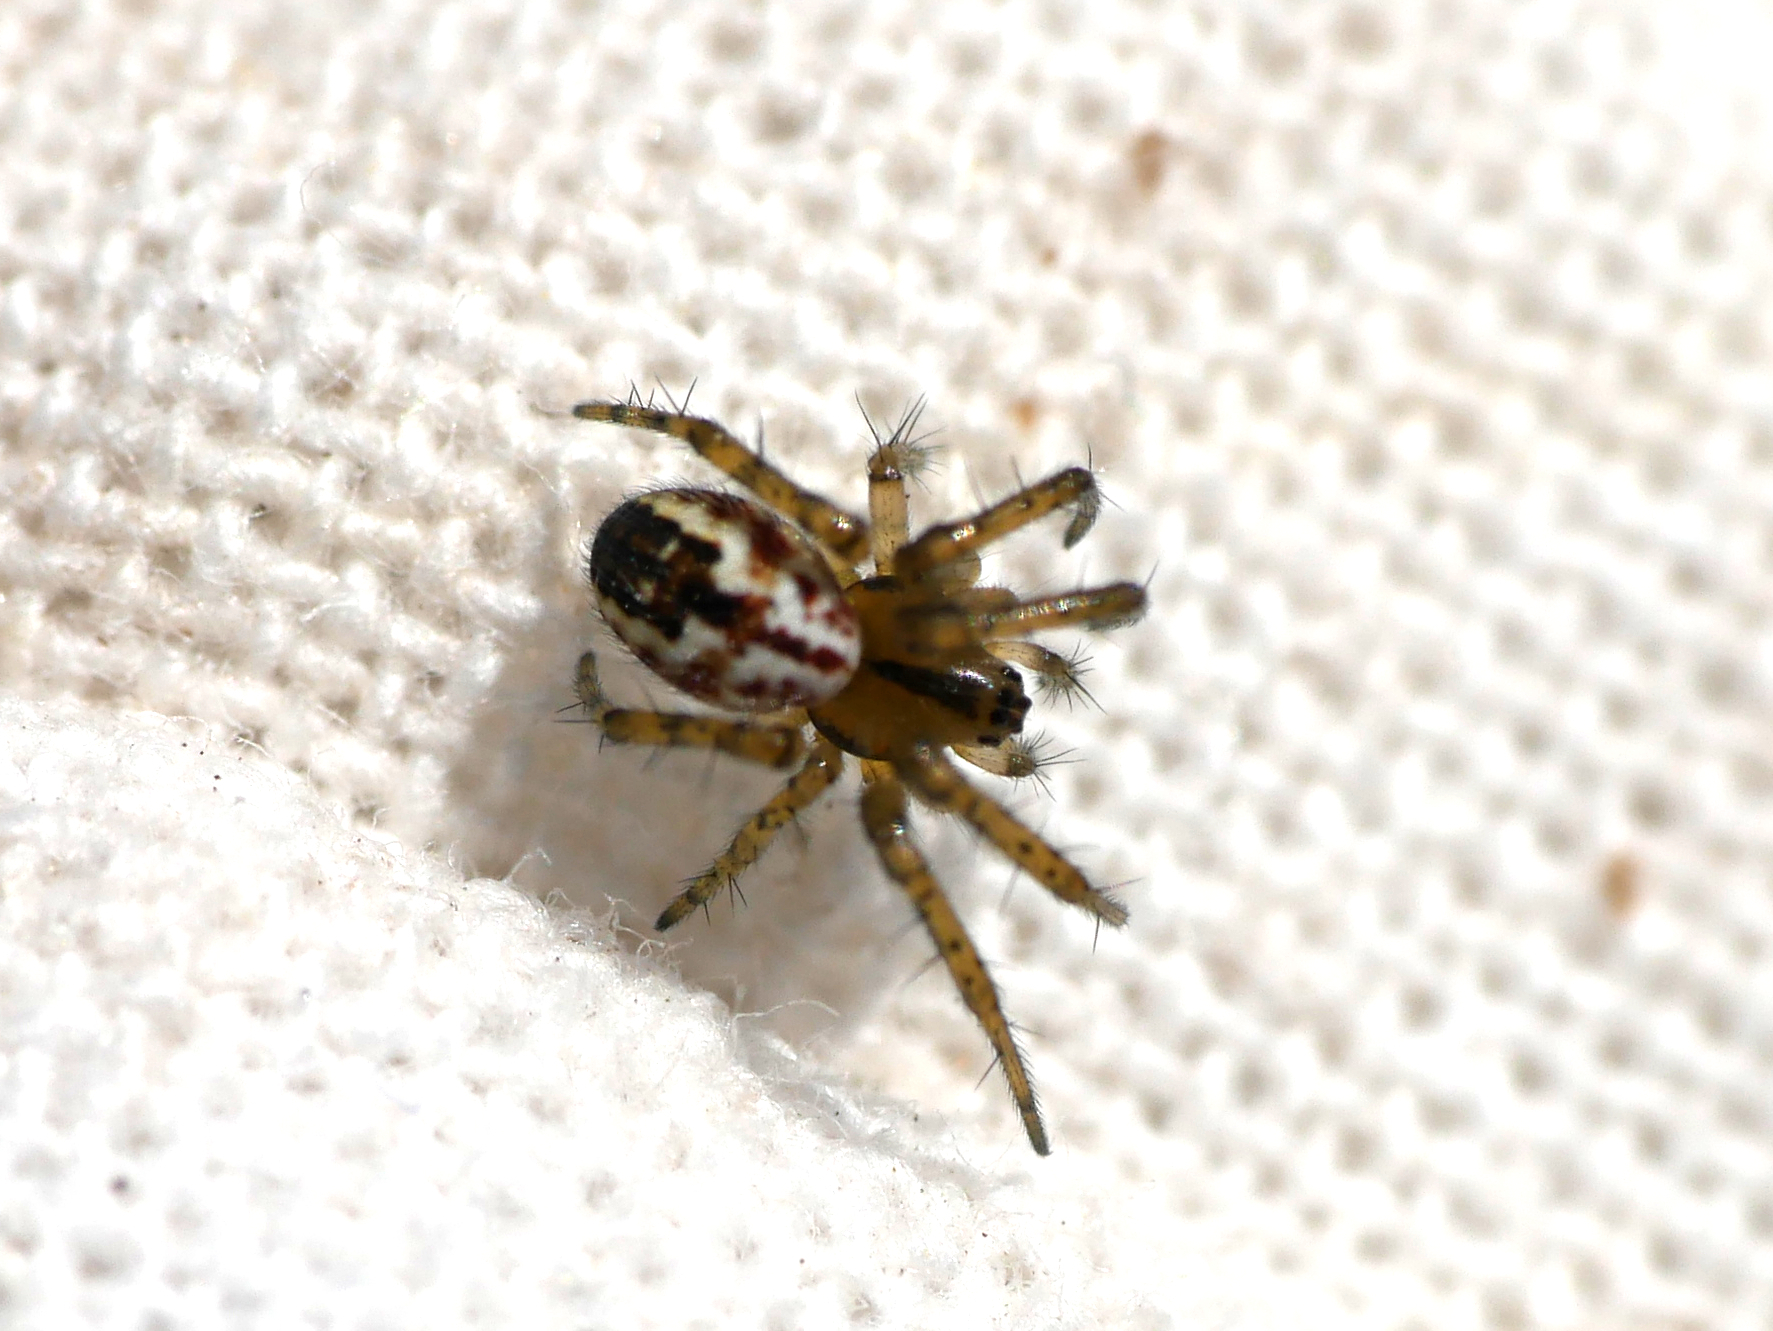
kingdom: Animalia
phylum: Arthropoda
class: Arachnida
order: Araneae
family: Araneidae
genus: Mangora
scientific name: Mangora acalypha
